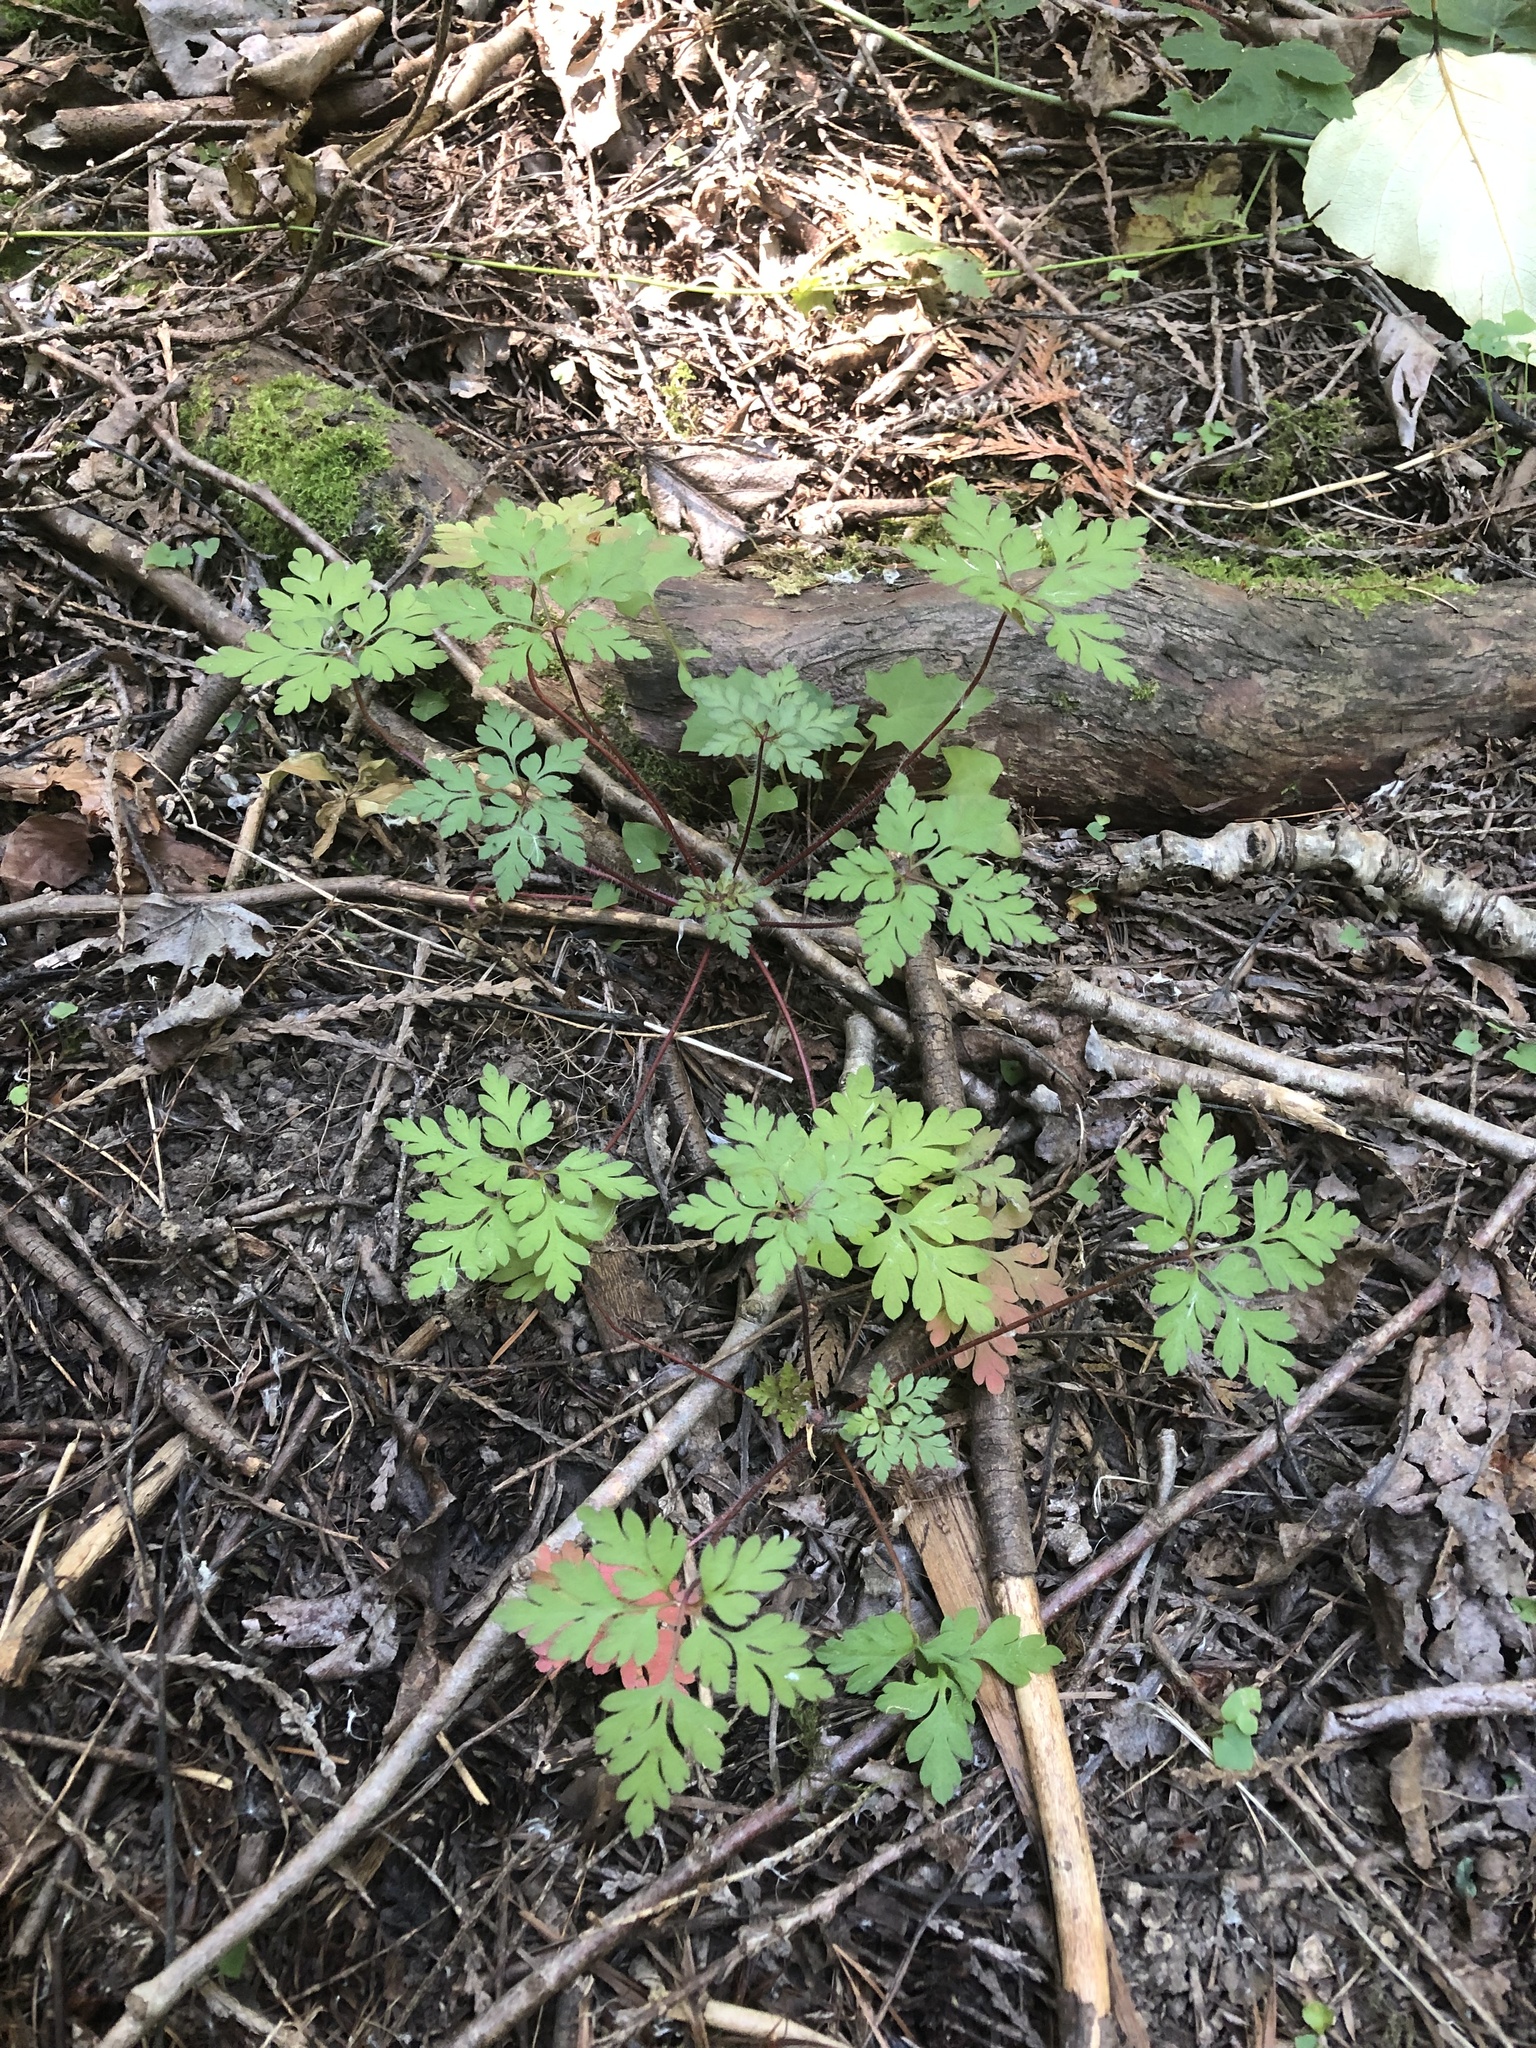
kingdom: Plantae
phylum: Tracheophyta
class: Magnoliopsida
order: Geraniales
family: Geraniaceae
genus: Geranium
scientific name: Geranium robertianum
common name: Herb-robert
